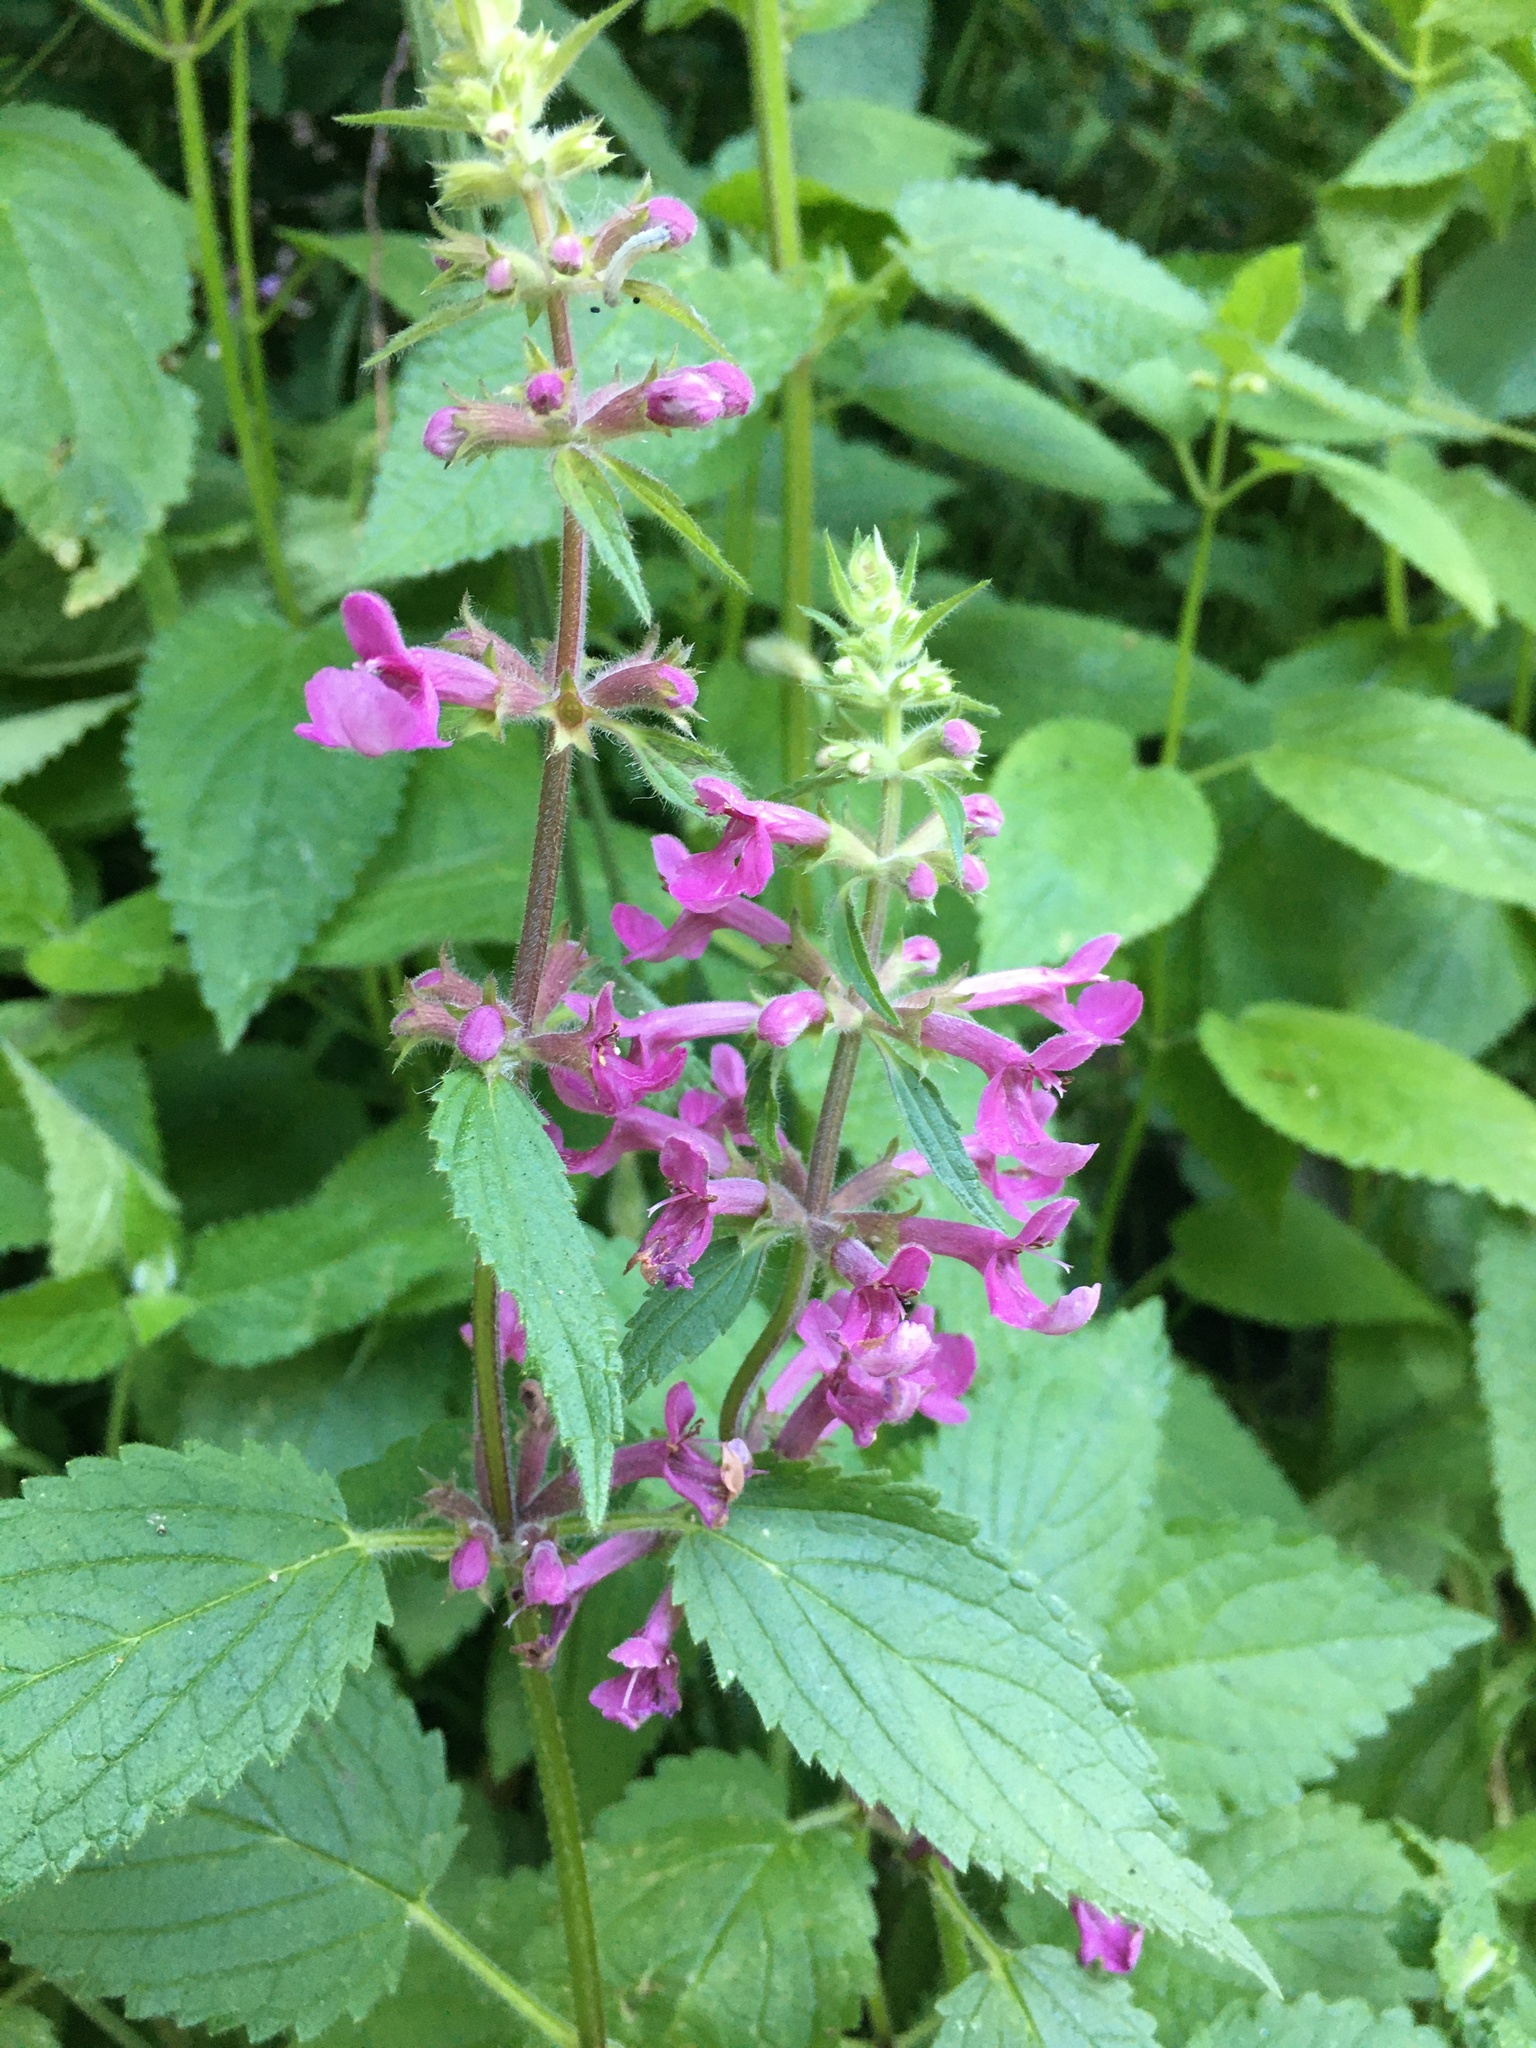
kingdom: Plantae
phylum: Tracheophyta
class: Magnoliopsida
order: Lamiales
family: Lamiaceae
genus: Stachys
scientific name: Stachys chamissonis
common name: Coastal hedge-nettle
